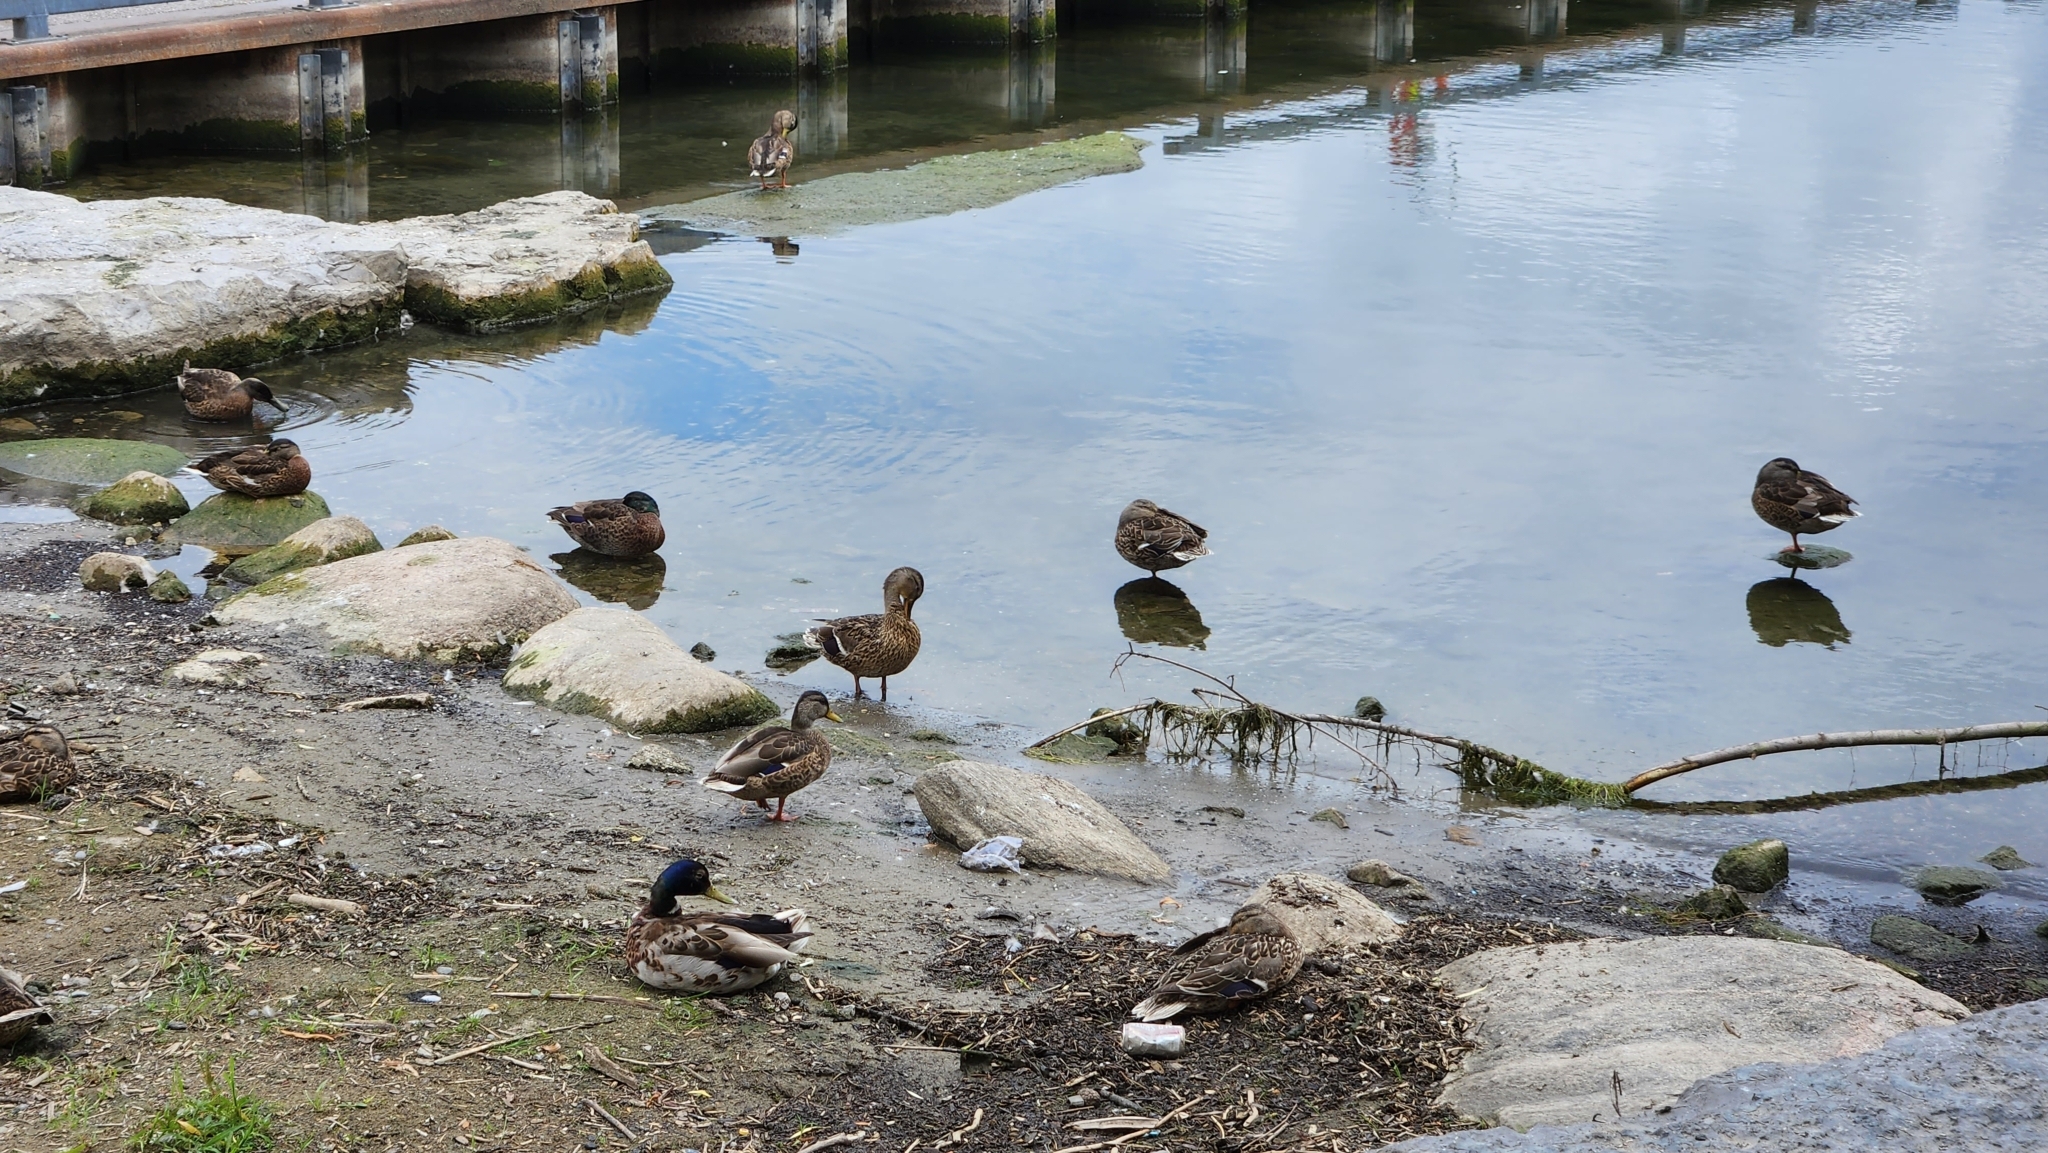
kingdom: Animalia
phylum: Chordata
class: Aves
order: Anseriformes
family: Anatidae
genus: Anas
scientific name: Anas platyrhynchos
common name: Mallard
